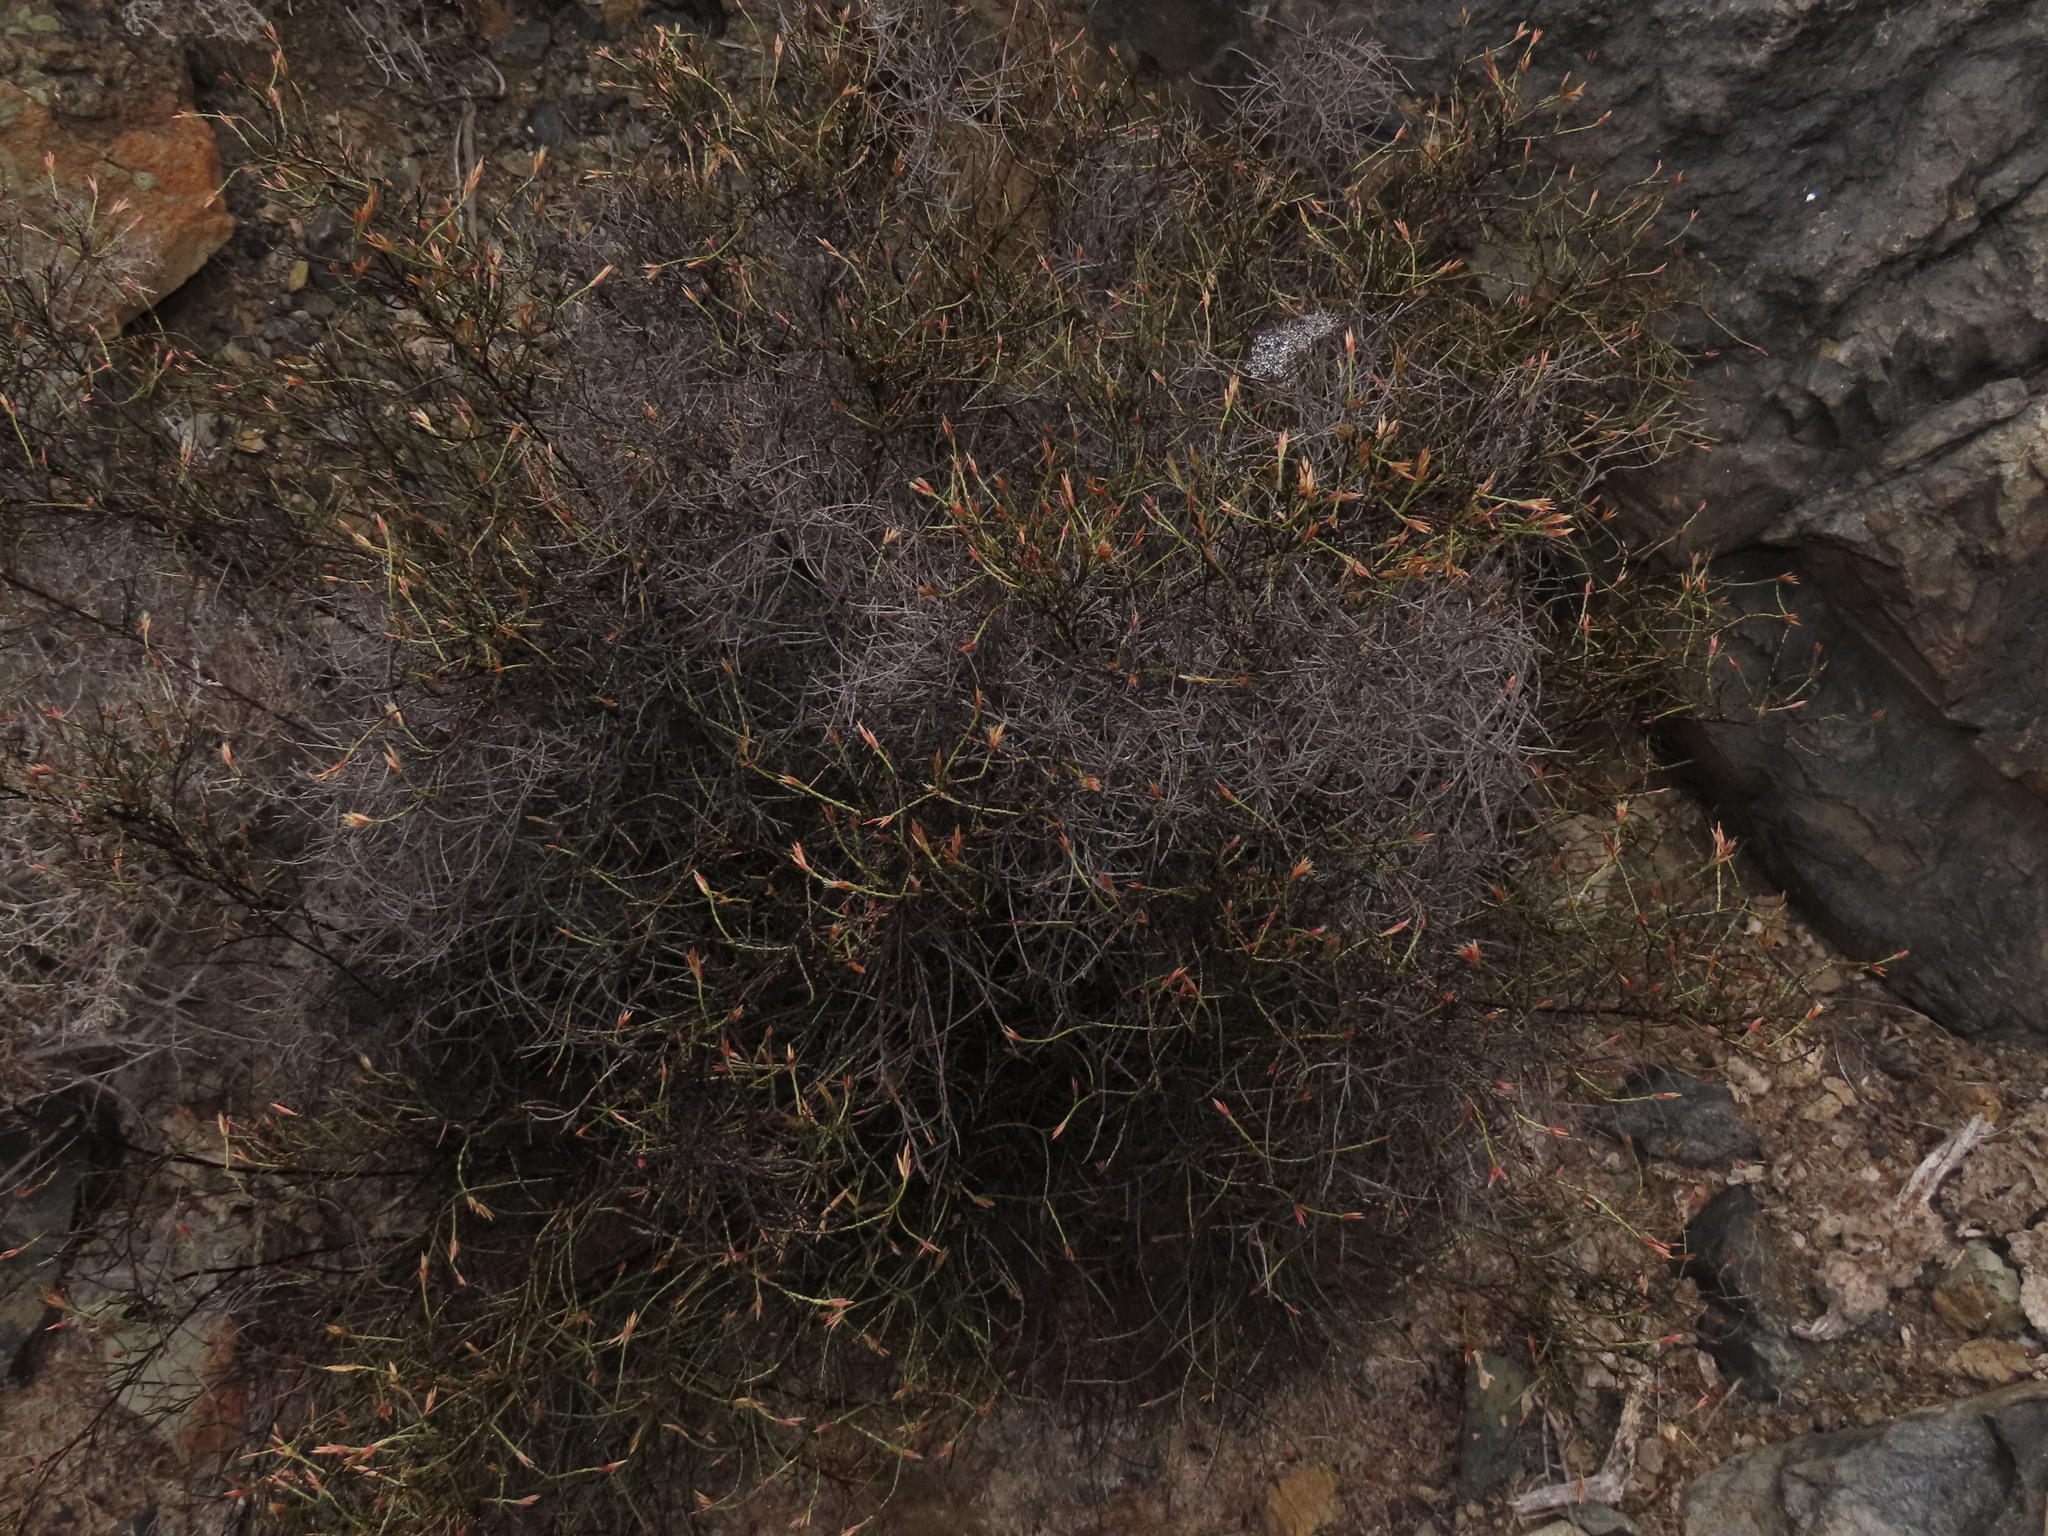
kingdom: Plantae
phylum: Tracheophyta
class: Magnoliopsida
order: Caryophyllales
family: Plumbaginaceae
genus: Bakerolimon
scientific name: Bakerolimon plumosum
